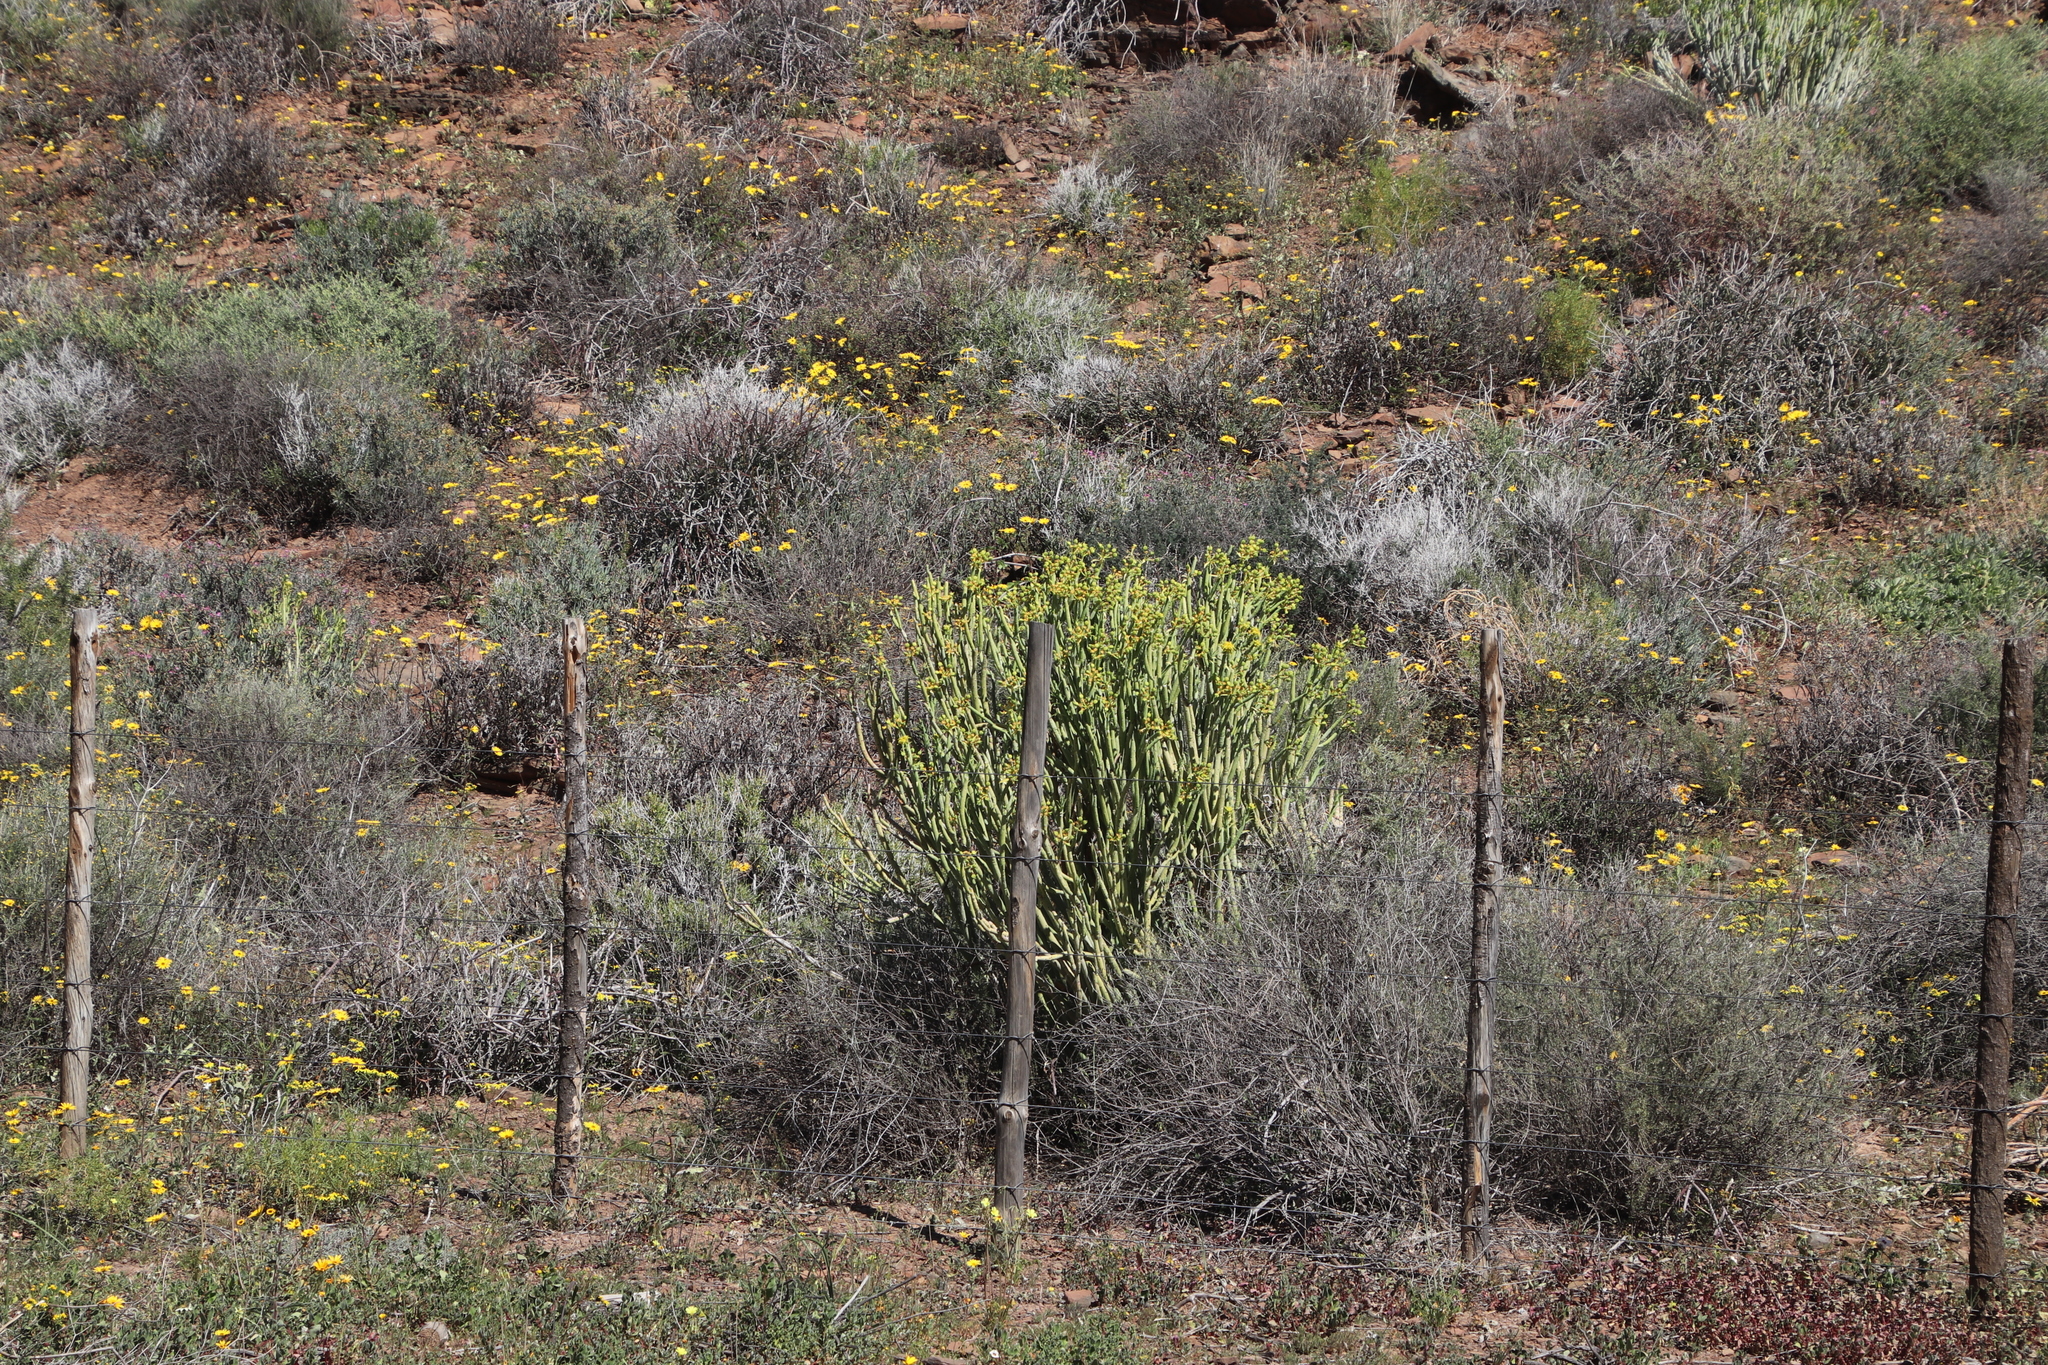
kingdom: Plantae
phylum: Tracheophyta
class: Magnoliopsida
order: Malpighiales
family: Euphorbiaceae
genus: Euphorbia
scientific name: Euphorbia mauritanica
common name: Jackal's-food
